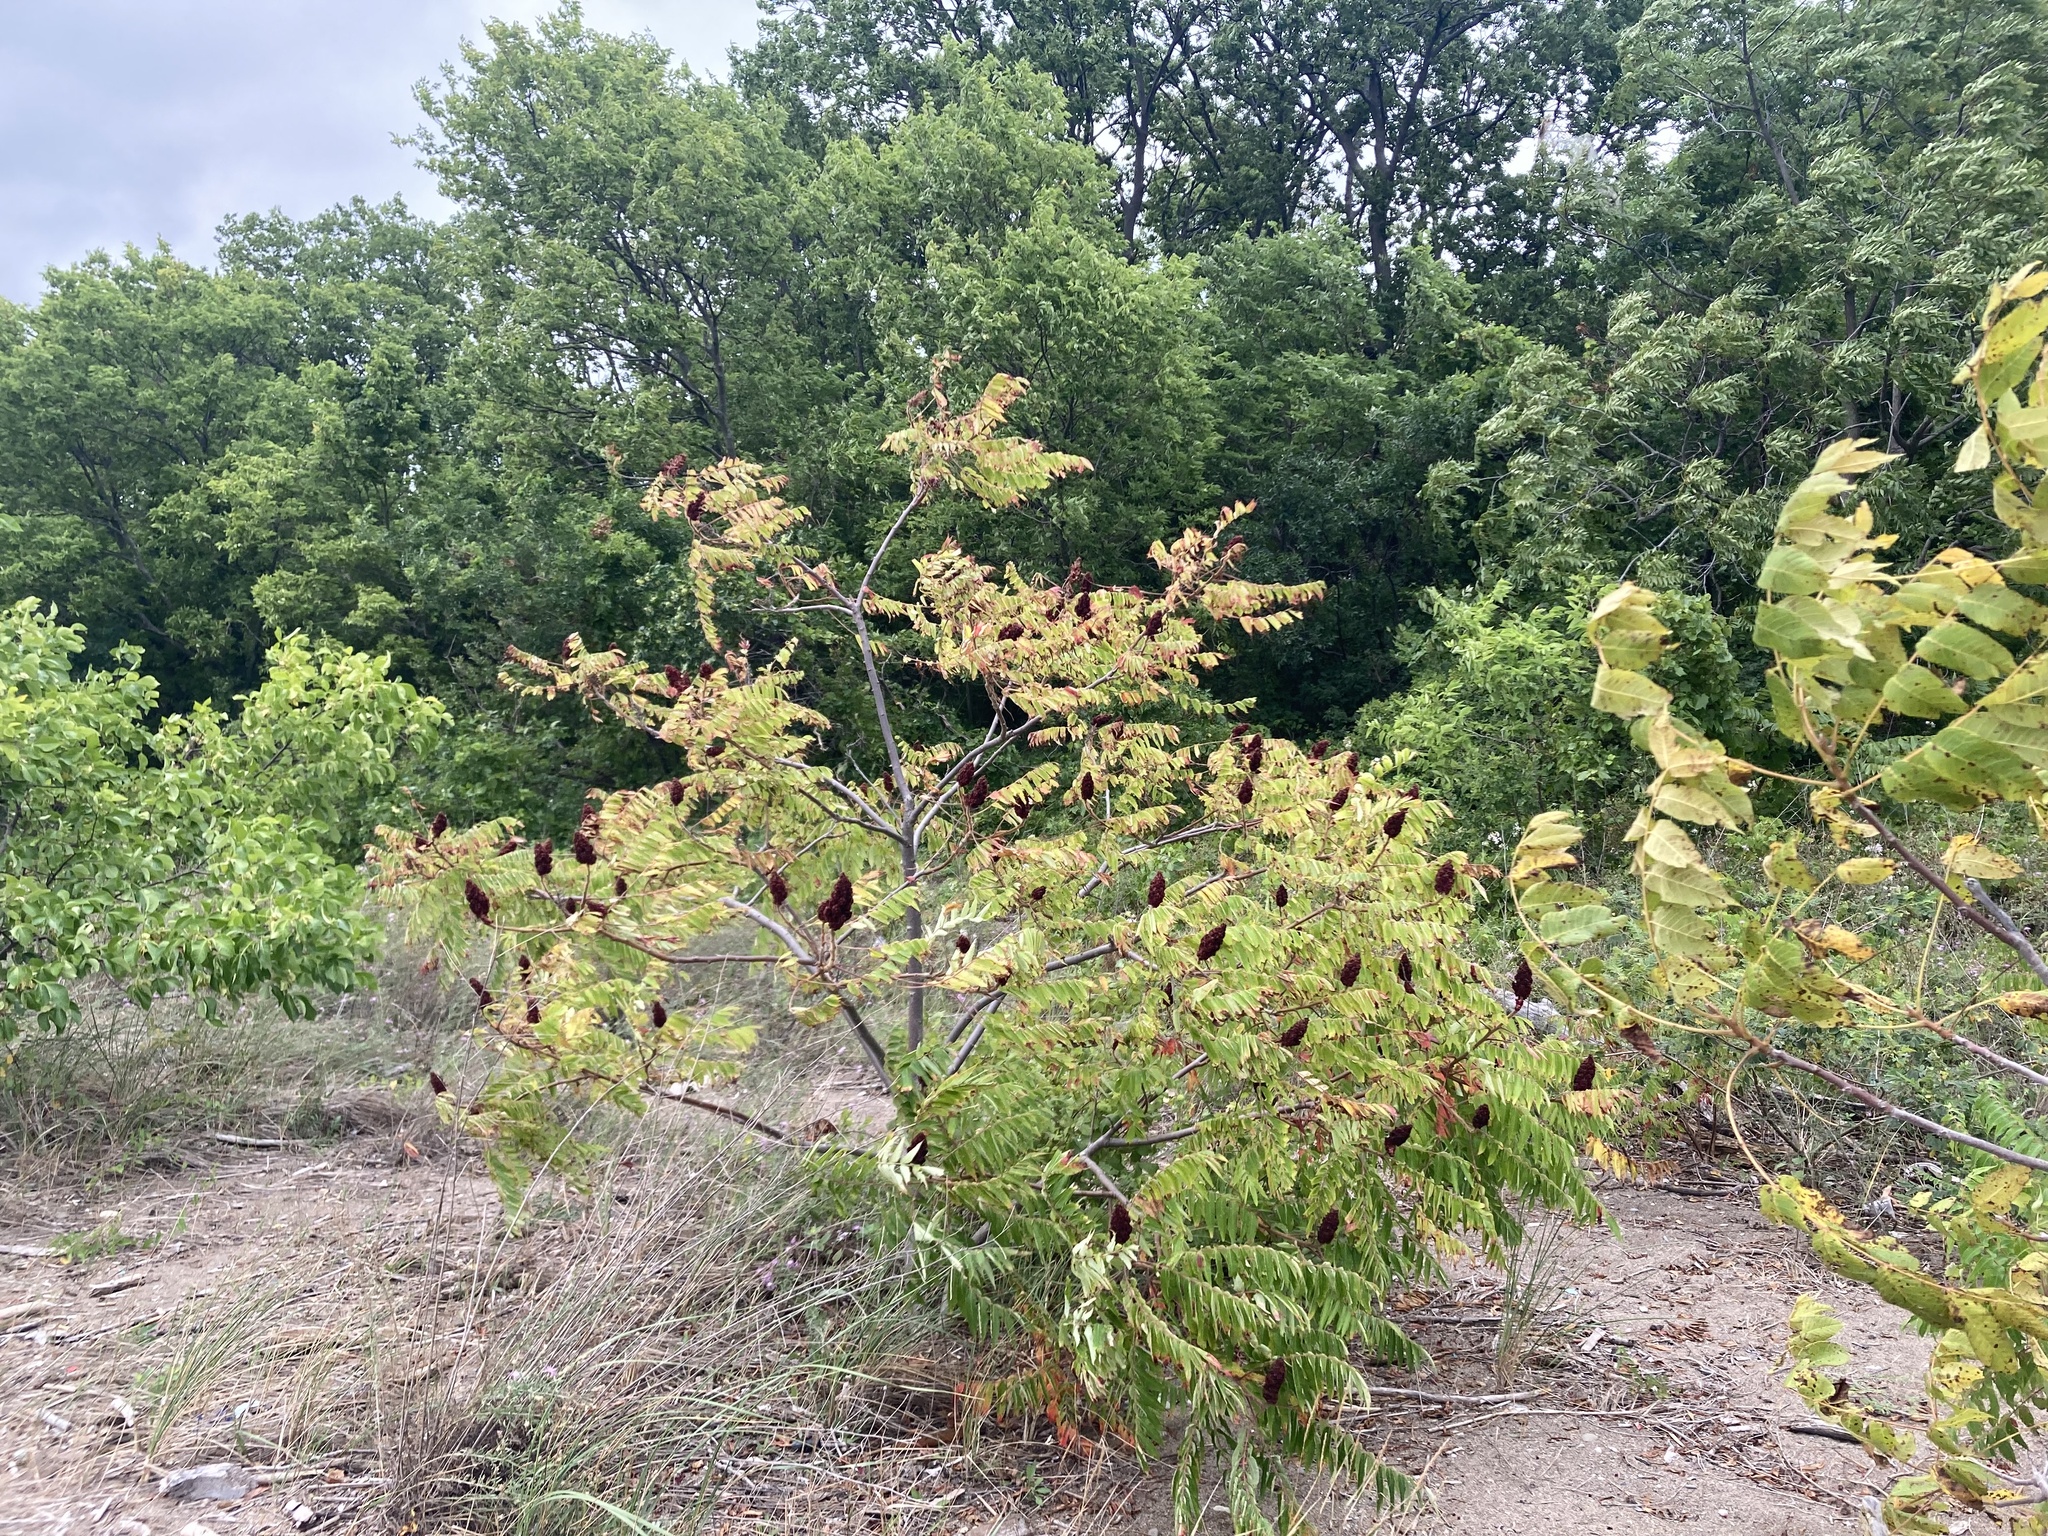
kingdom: Plantae
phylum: Tracheophyta
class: Magnoliopsida
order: Sapindales
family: Anacardiaceae
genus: Rhus
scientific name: Rhus typhina
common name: Staghorn sumac
